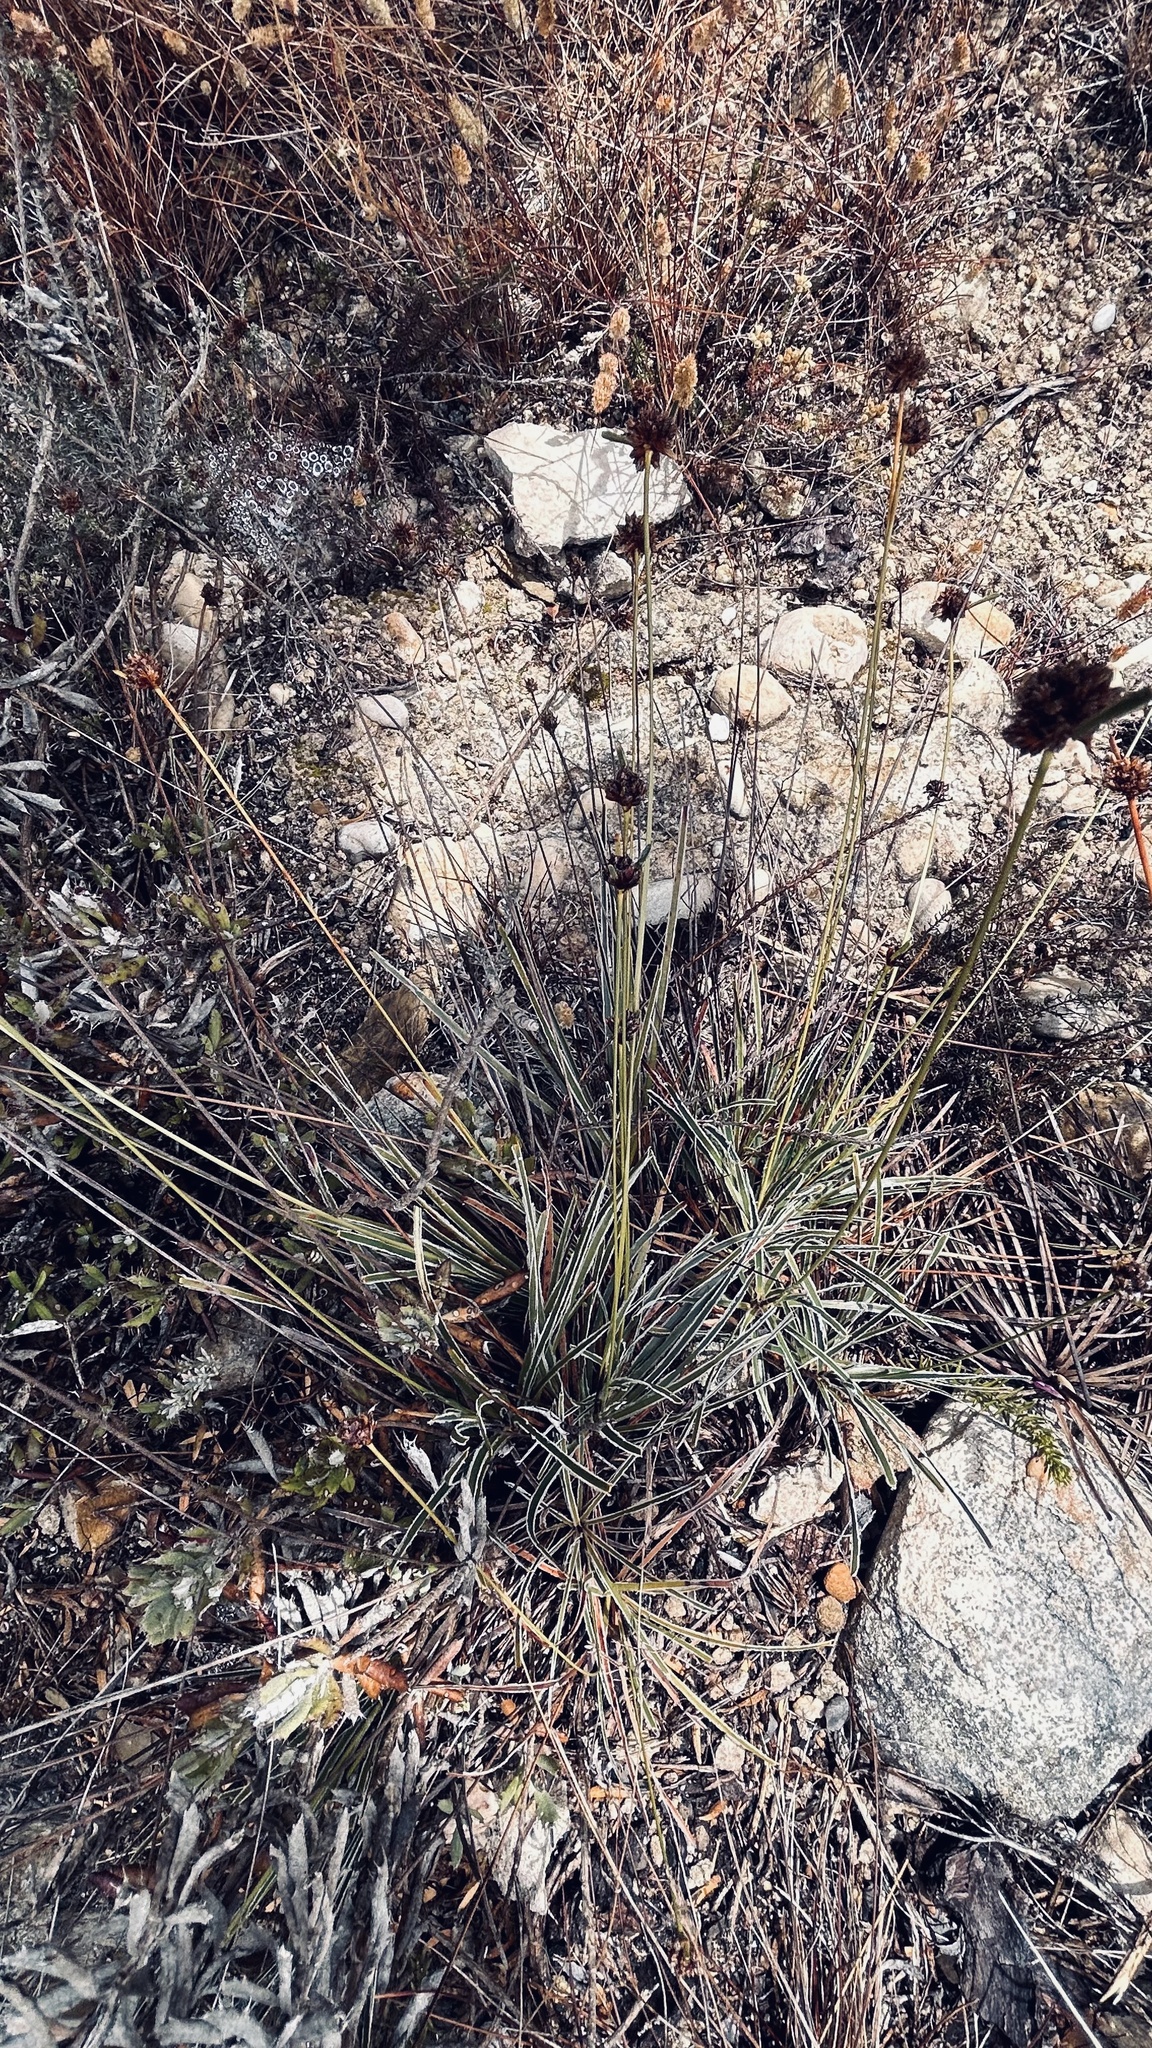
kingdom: Plantae
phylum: Tracheophyta
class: Liliopsida
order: Poales
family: Cyperaceae
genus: Ficinia
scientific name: Ficinia truncata
